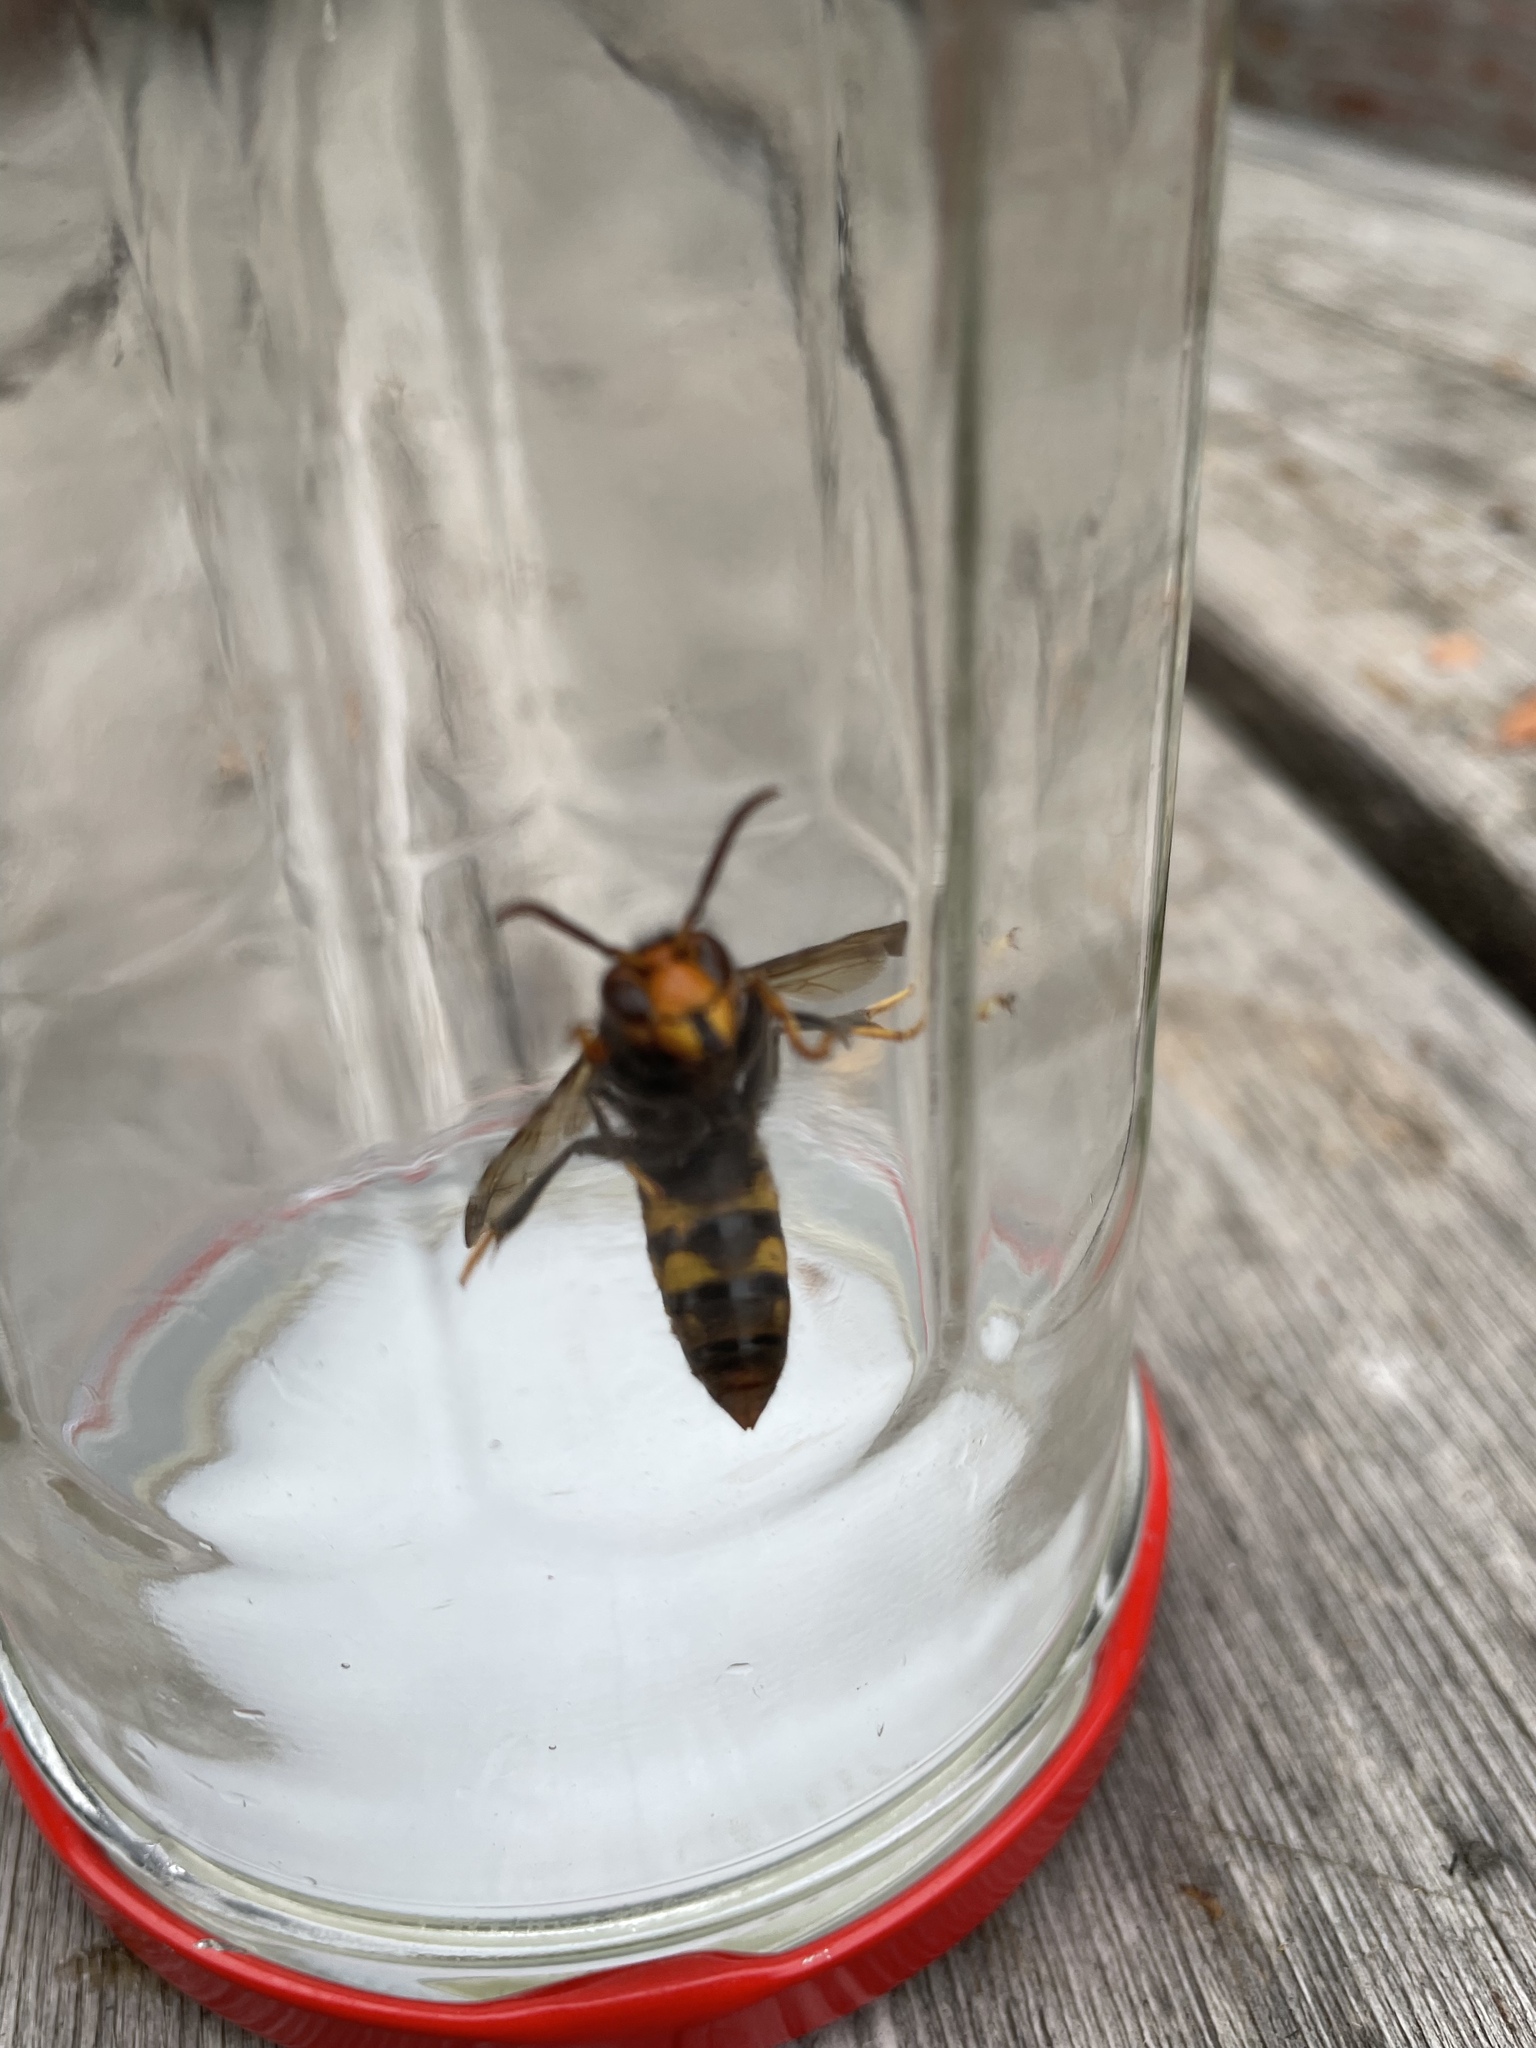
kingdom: Animalia
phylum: Arthropoda
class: Insecta
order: Hymenoptera
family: Vespidae
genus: Vespa
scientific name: Vespa velutina
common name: Asian hornet
